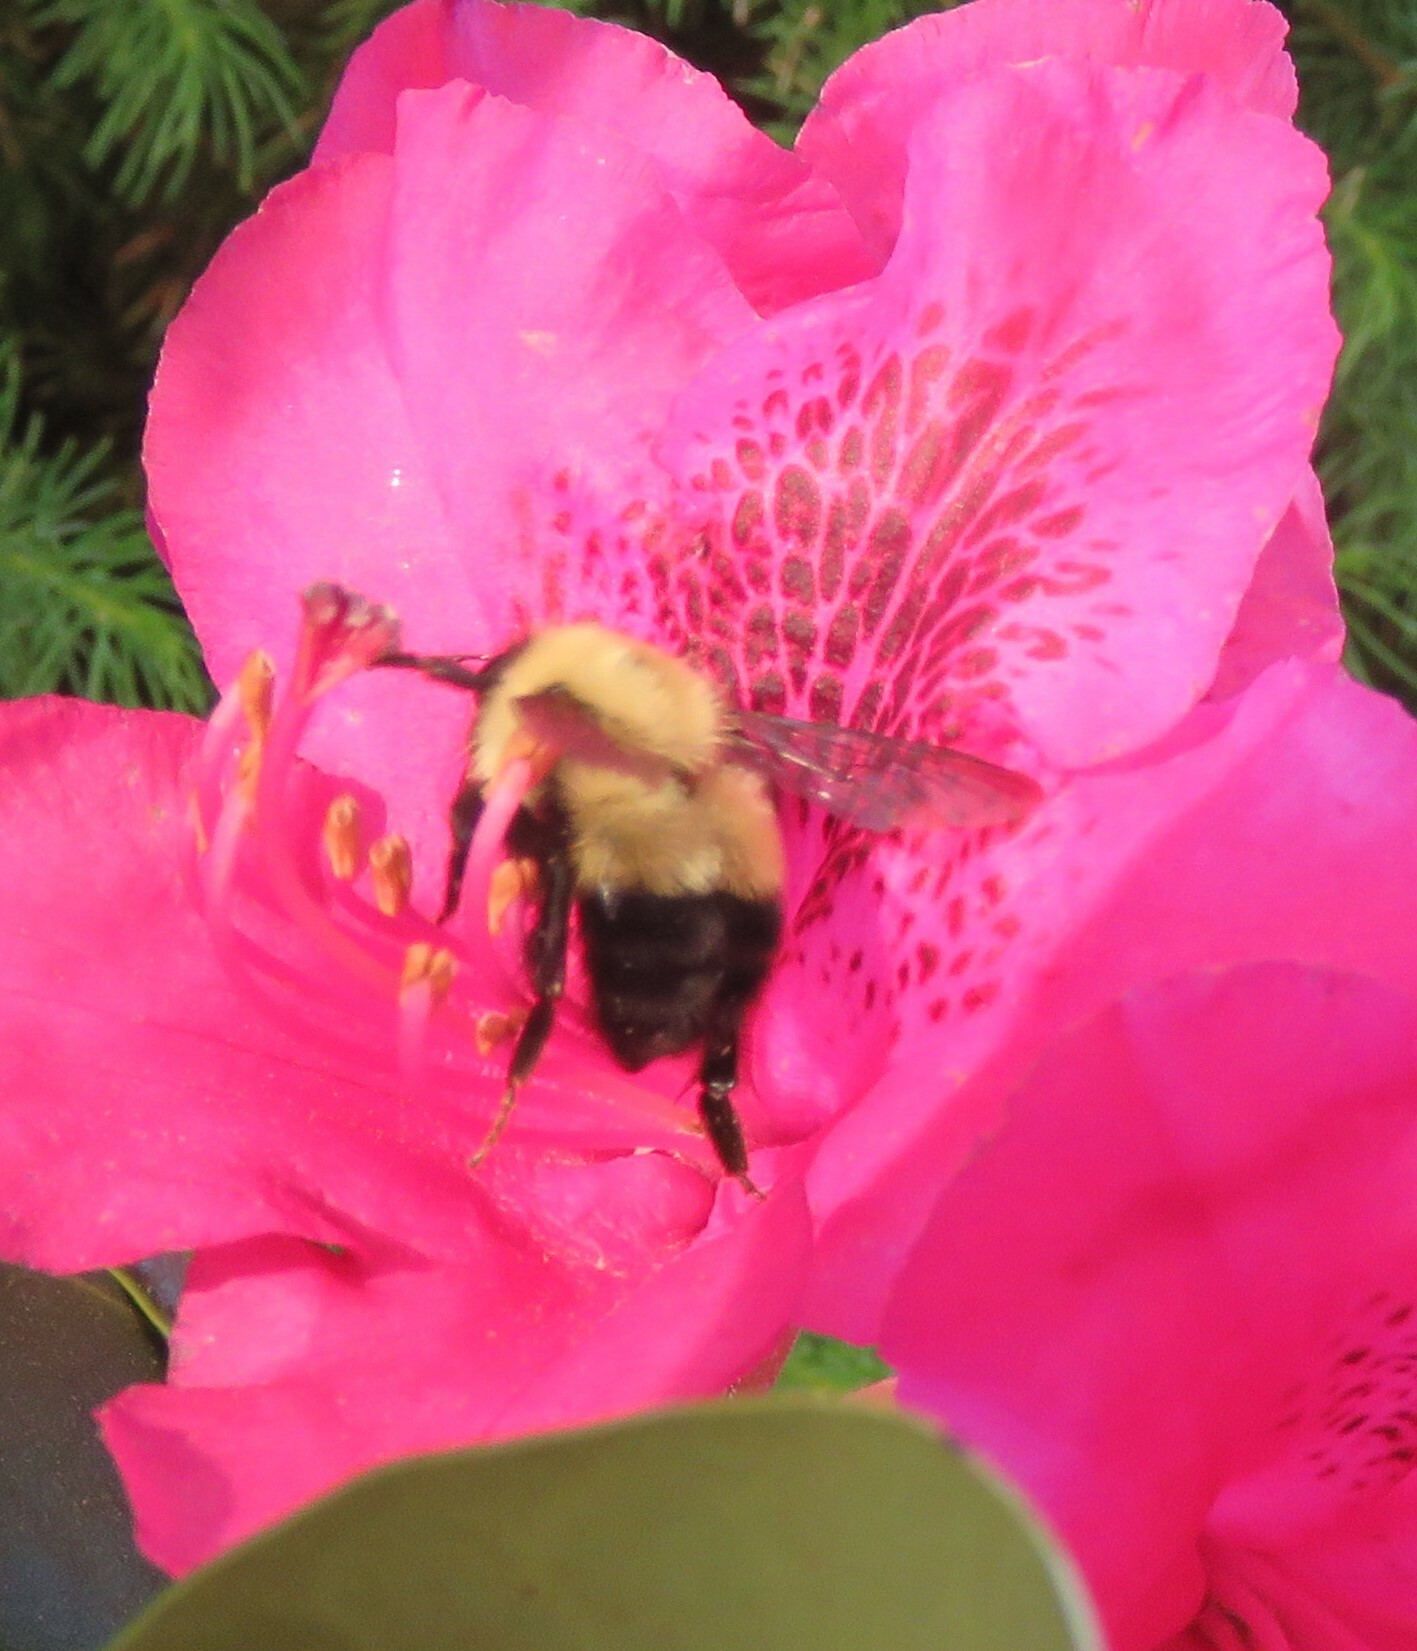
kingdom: Animalia
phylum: Arthropoda
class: Insecta
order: Hymenoptera
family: Apidae
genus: Pyrobombus
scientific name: Pyrobombus
